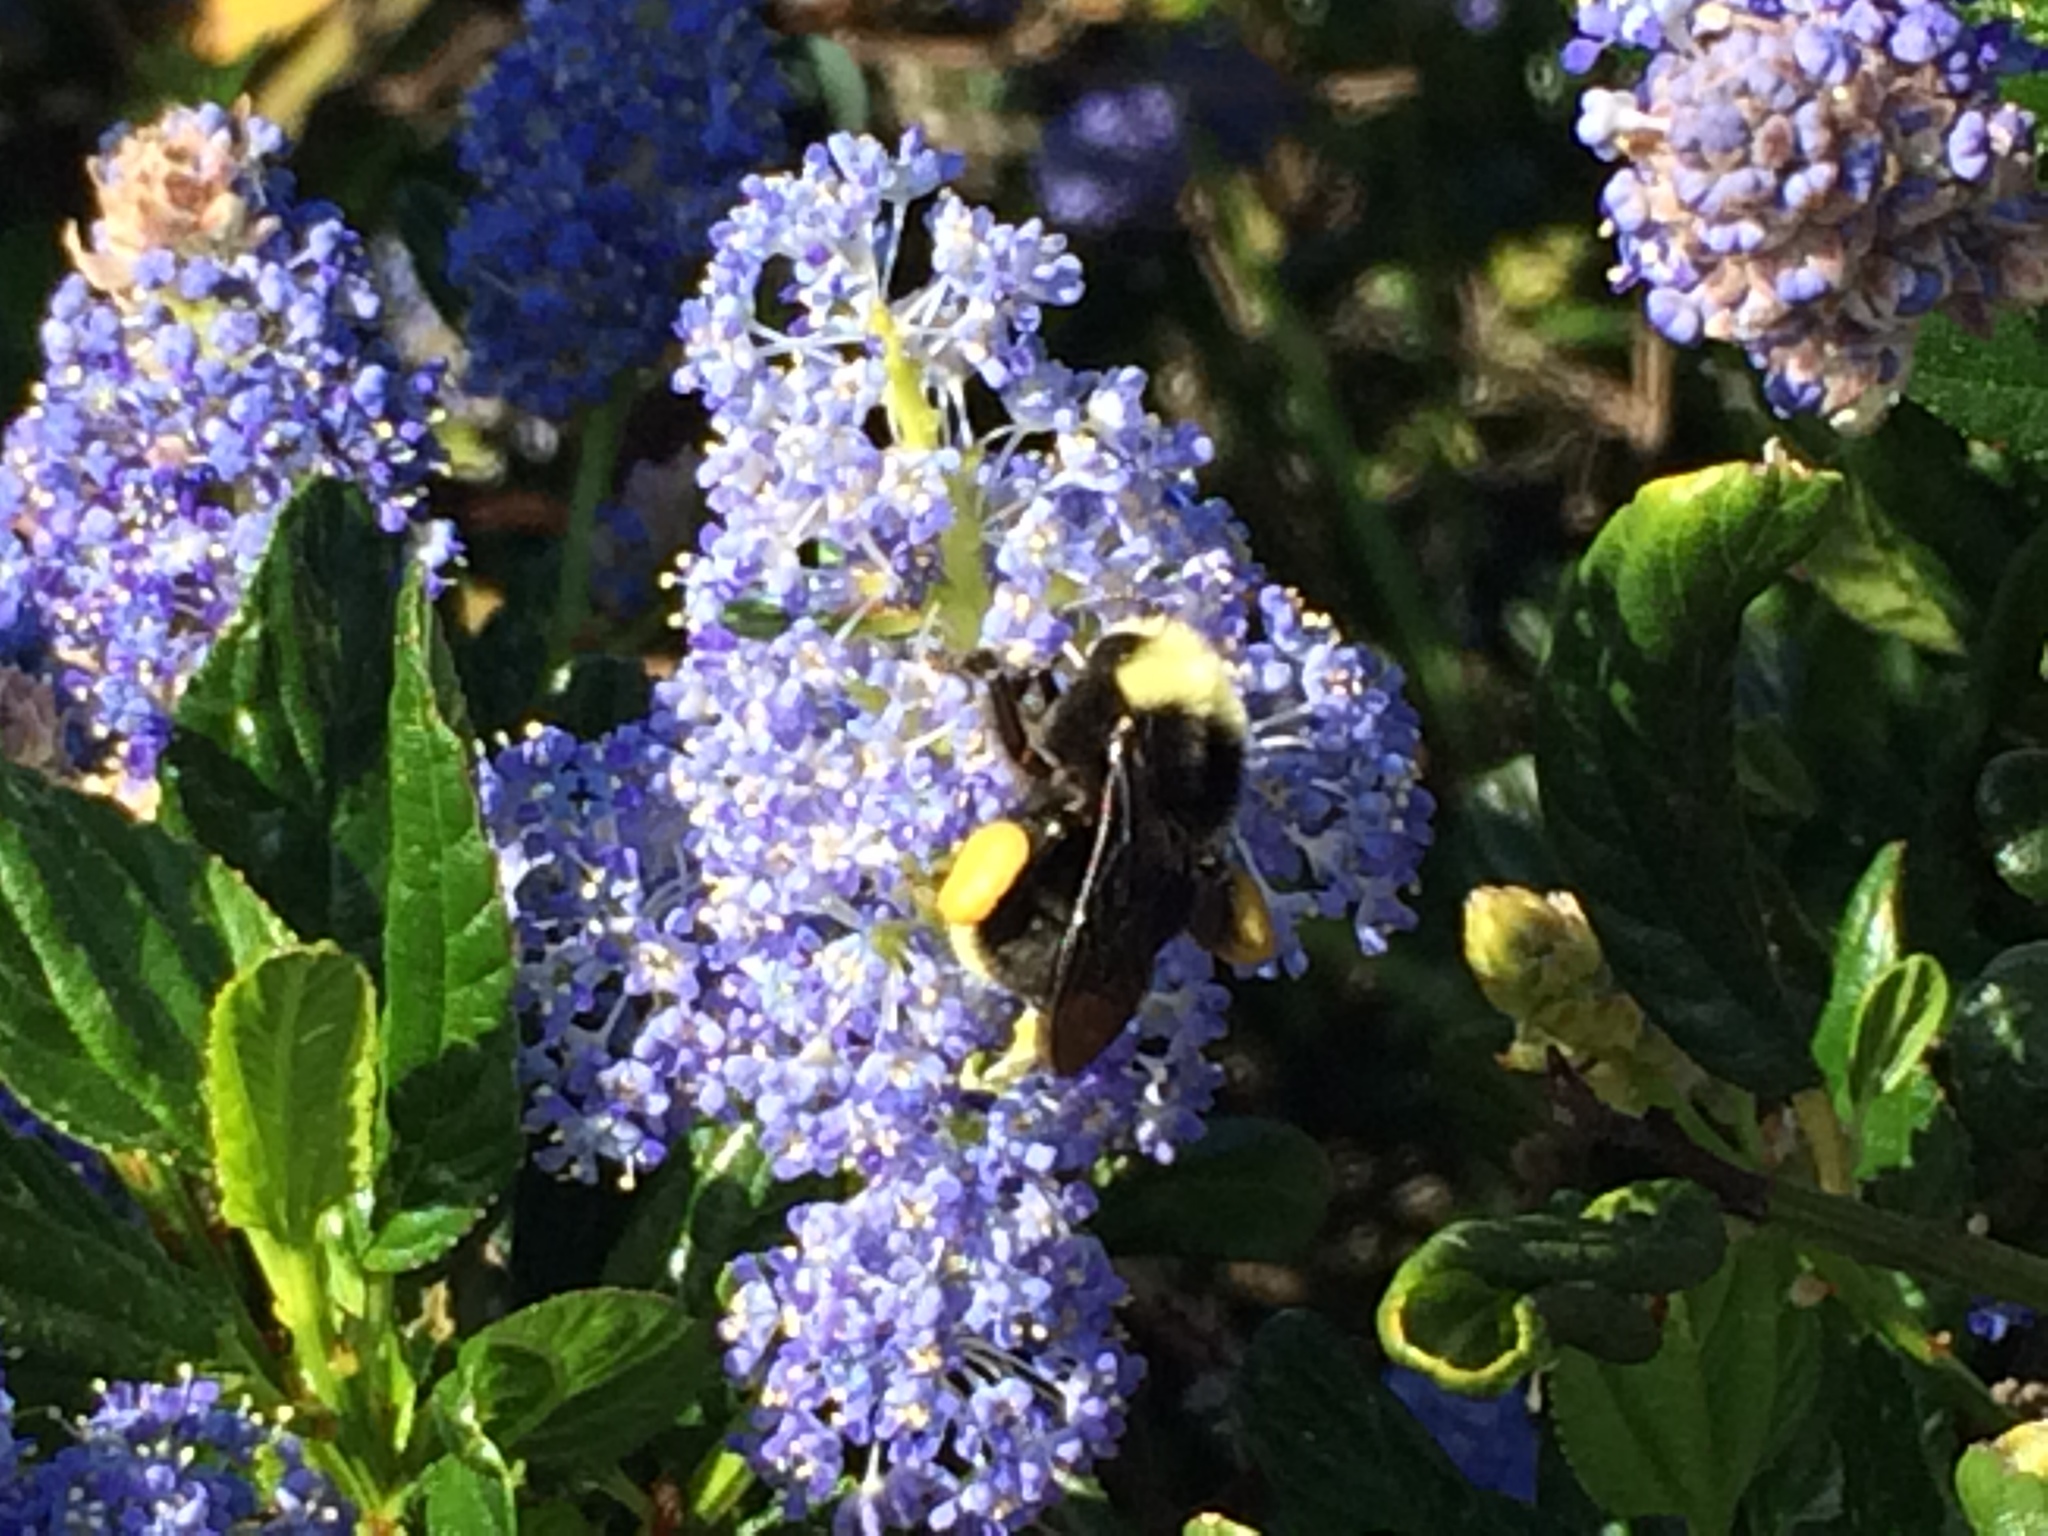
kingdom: Animalia
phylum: Arthropoda
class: Insecta
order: Hymenoptera
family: Apidae
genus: Pyrobombus
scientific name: Pyrobombus
